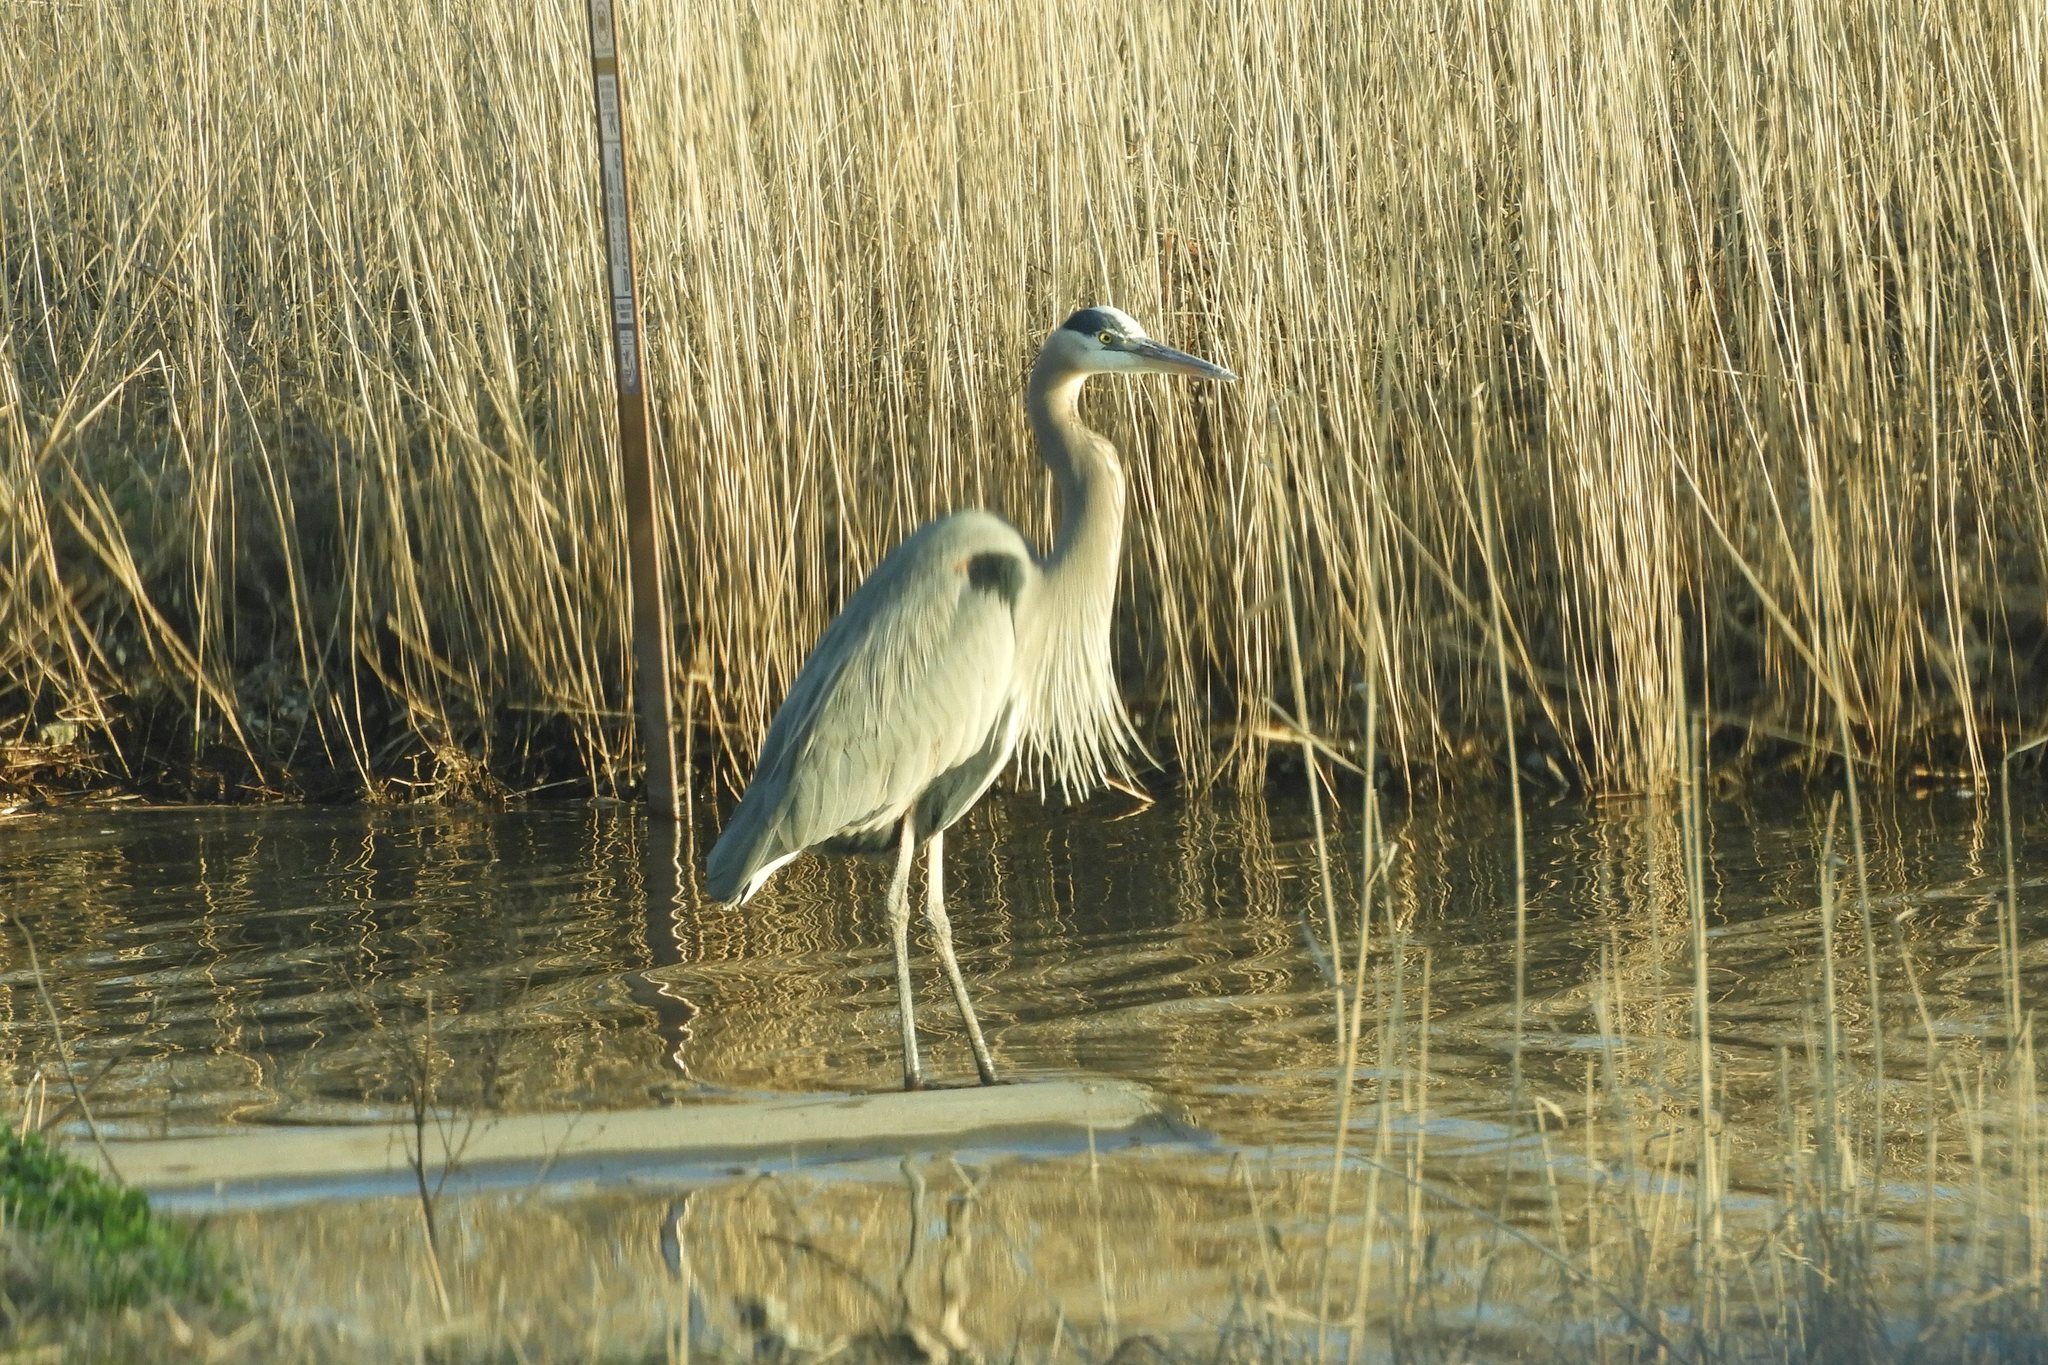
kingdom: Animalia
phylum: Chordata
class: Aves
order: Pelecaniformes
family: Ardeidae
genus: Ardea
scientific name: Ardea herodias
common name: Great blue heron
